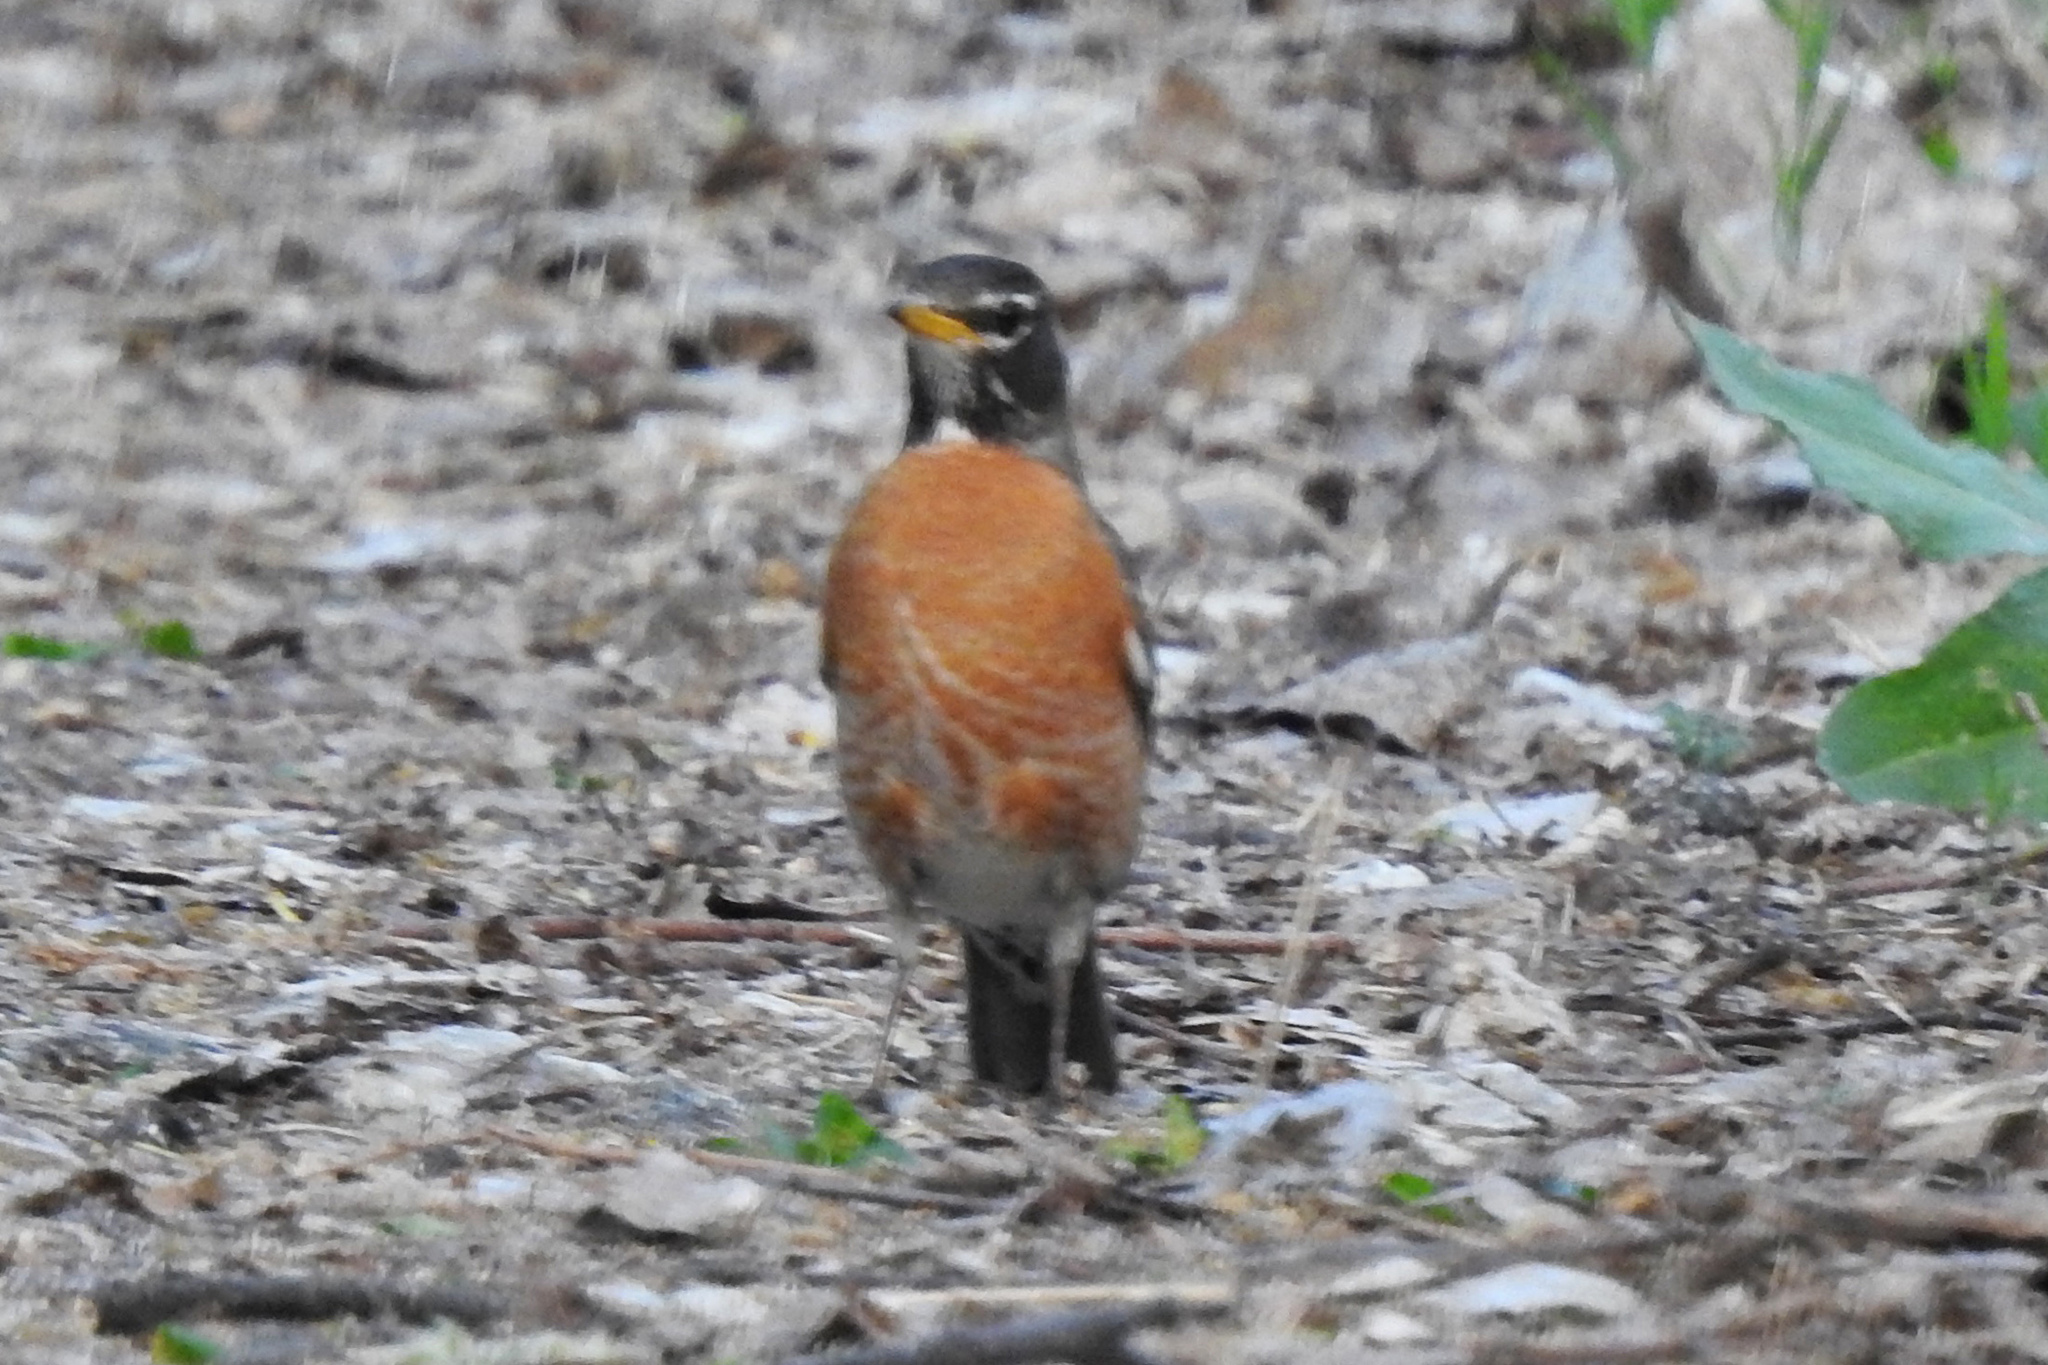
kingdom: Animalia
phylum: Chordata
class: Aves
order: Passeriformes
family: Turdidae
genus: Turdus
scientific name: Turdus migratorius
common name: American robin
